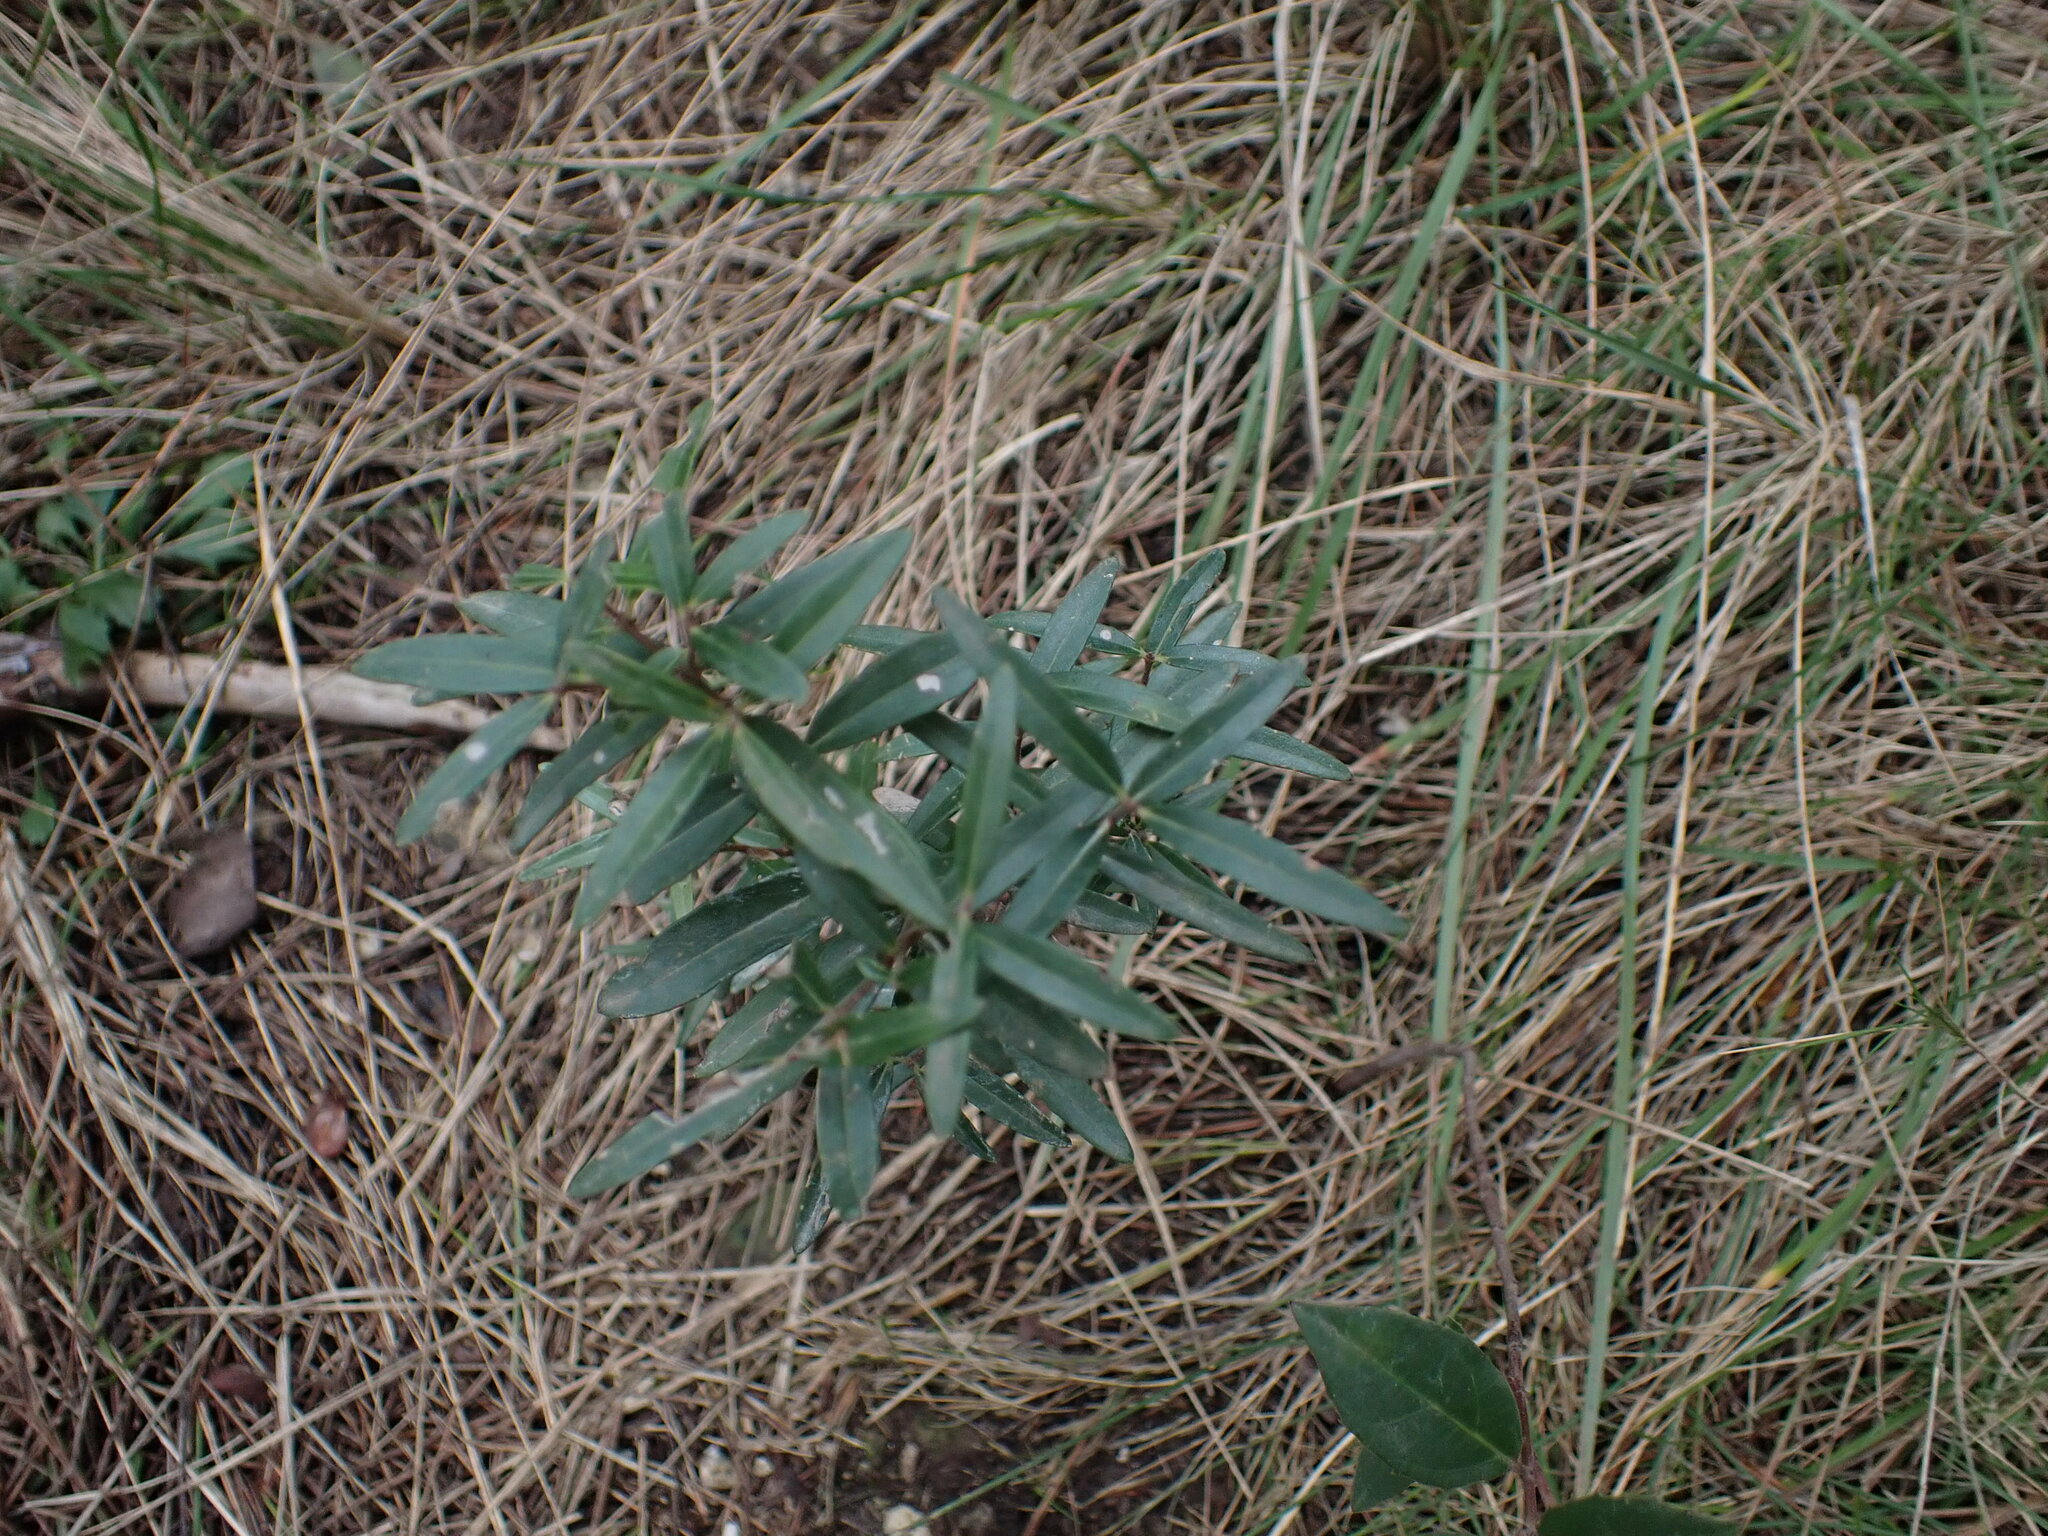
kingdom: Plantae
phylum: Tracheophyta
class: Magnoliopsida
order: Lamiales
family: Oleaceae
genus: Phillyrea
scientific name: Phillyrea angustifolia
